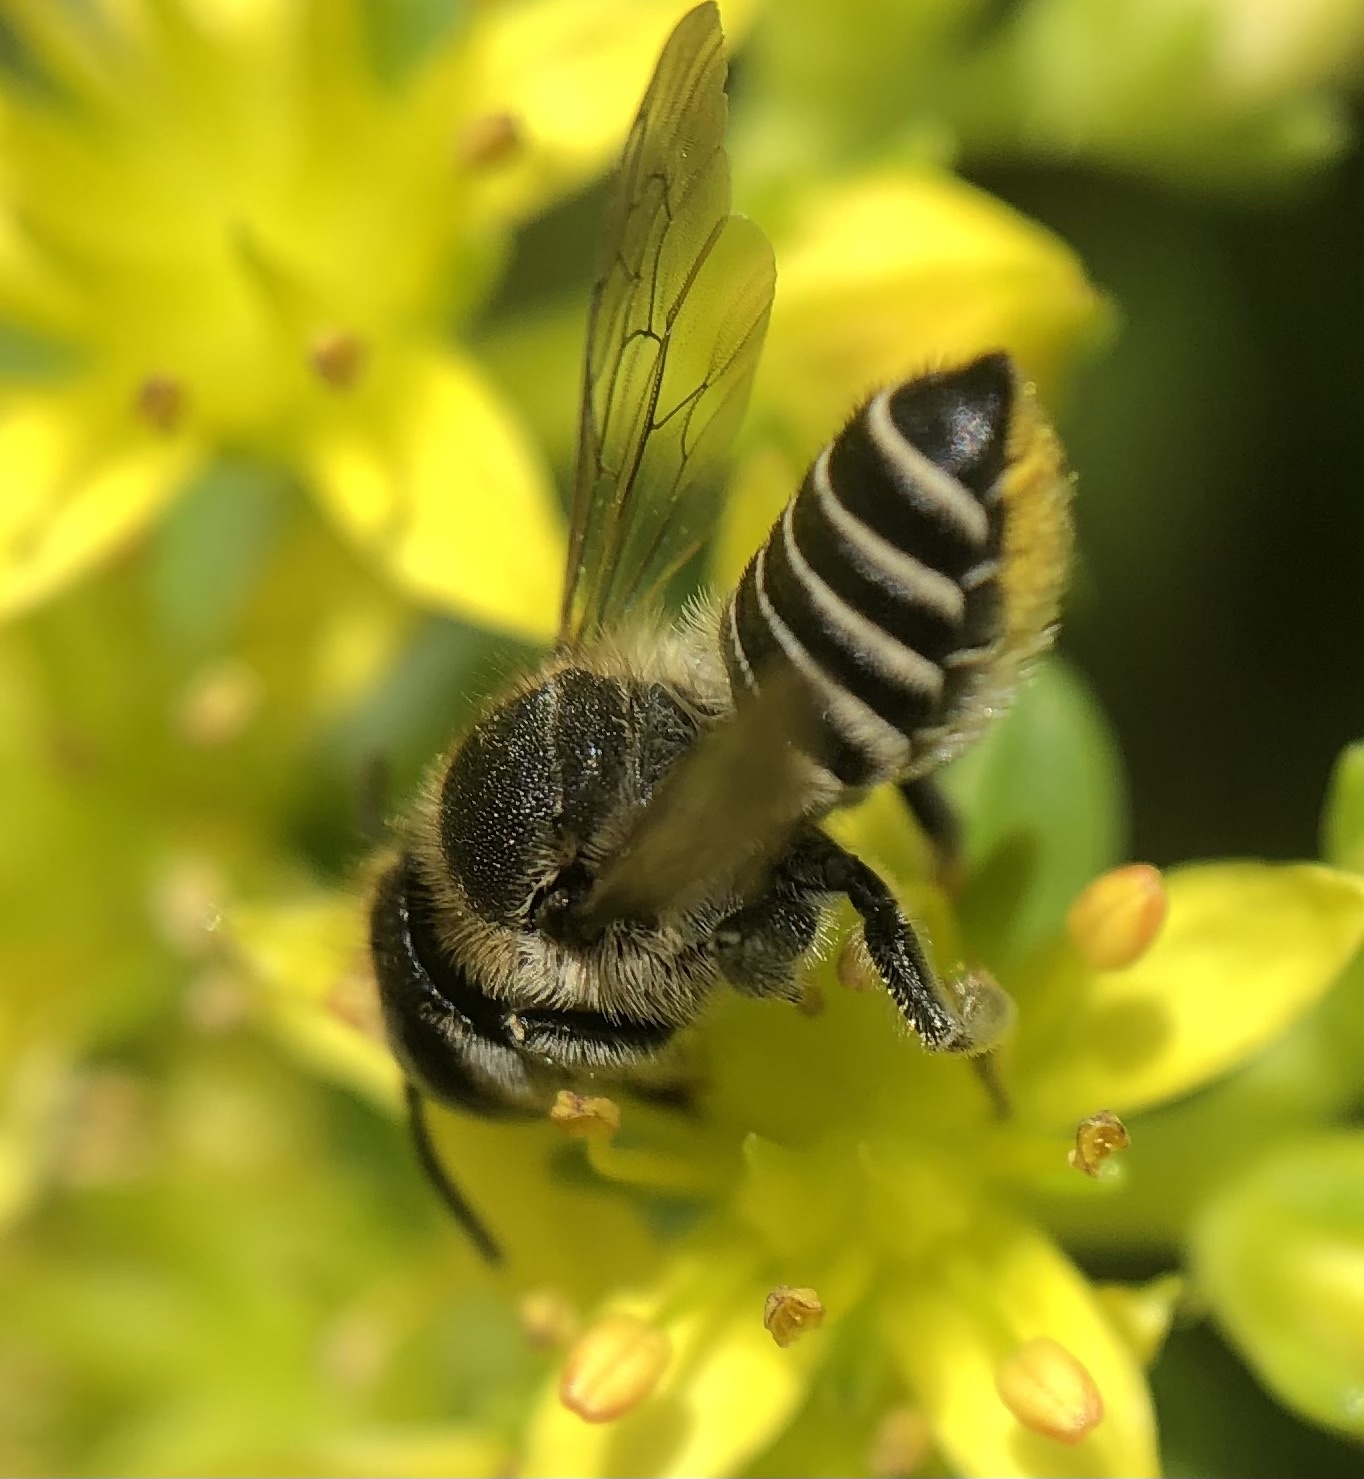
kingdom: Animalia
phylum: Arthropoda
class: Insecta
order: Hymenoptera
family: Megachilidae
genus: Megachile
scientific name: Megachile rotundata
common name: Alfalfa leafcutting bee
